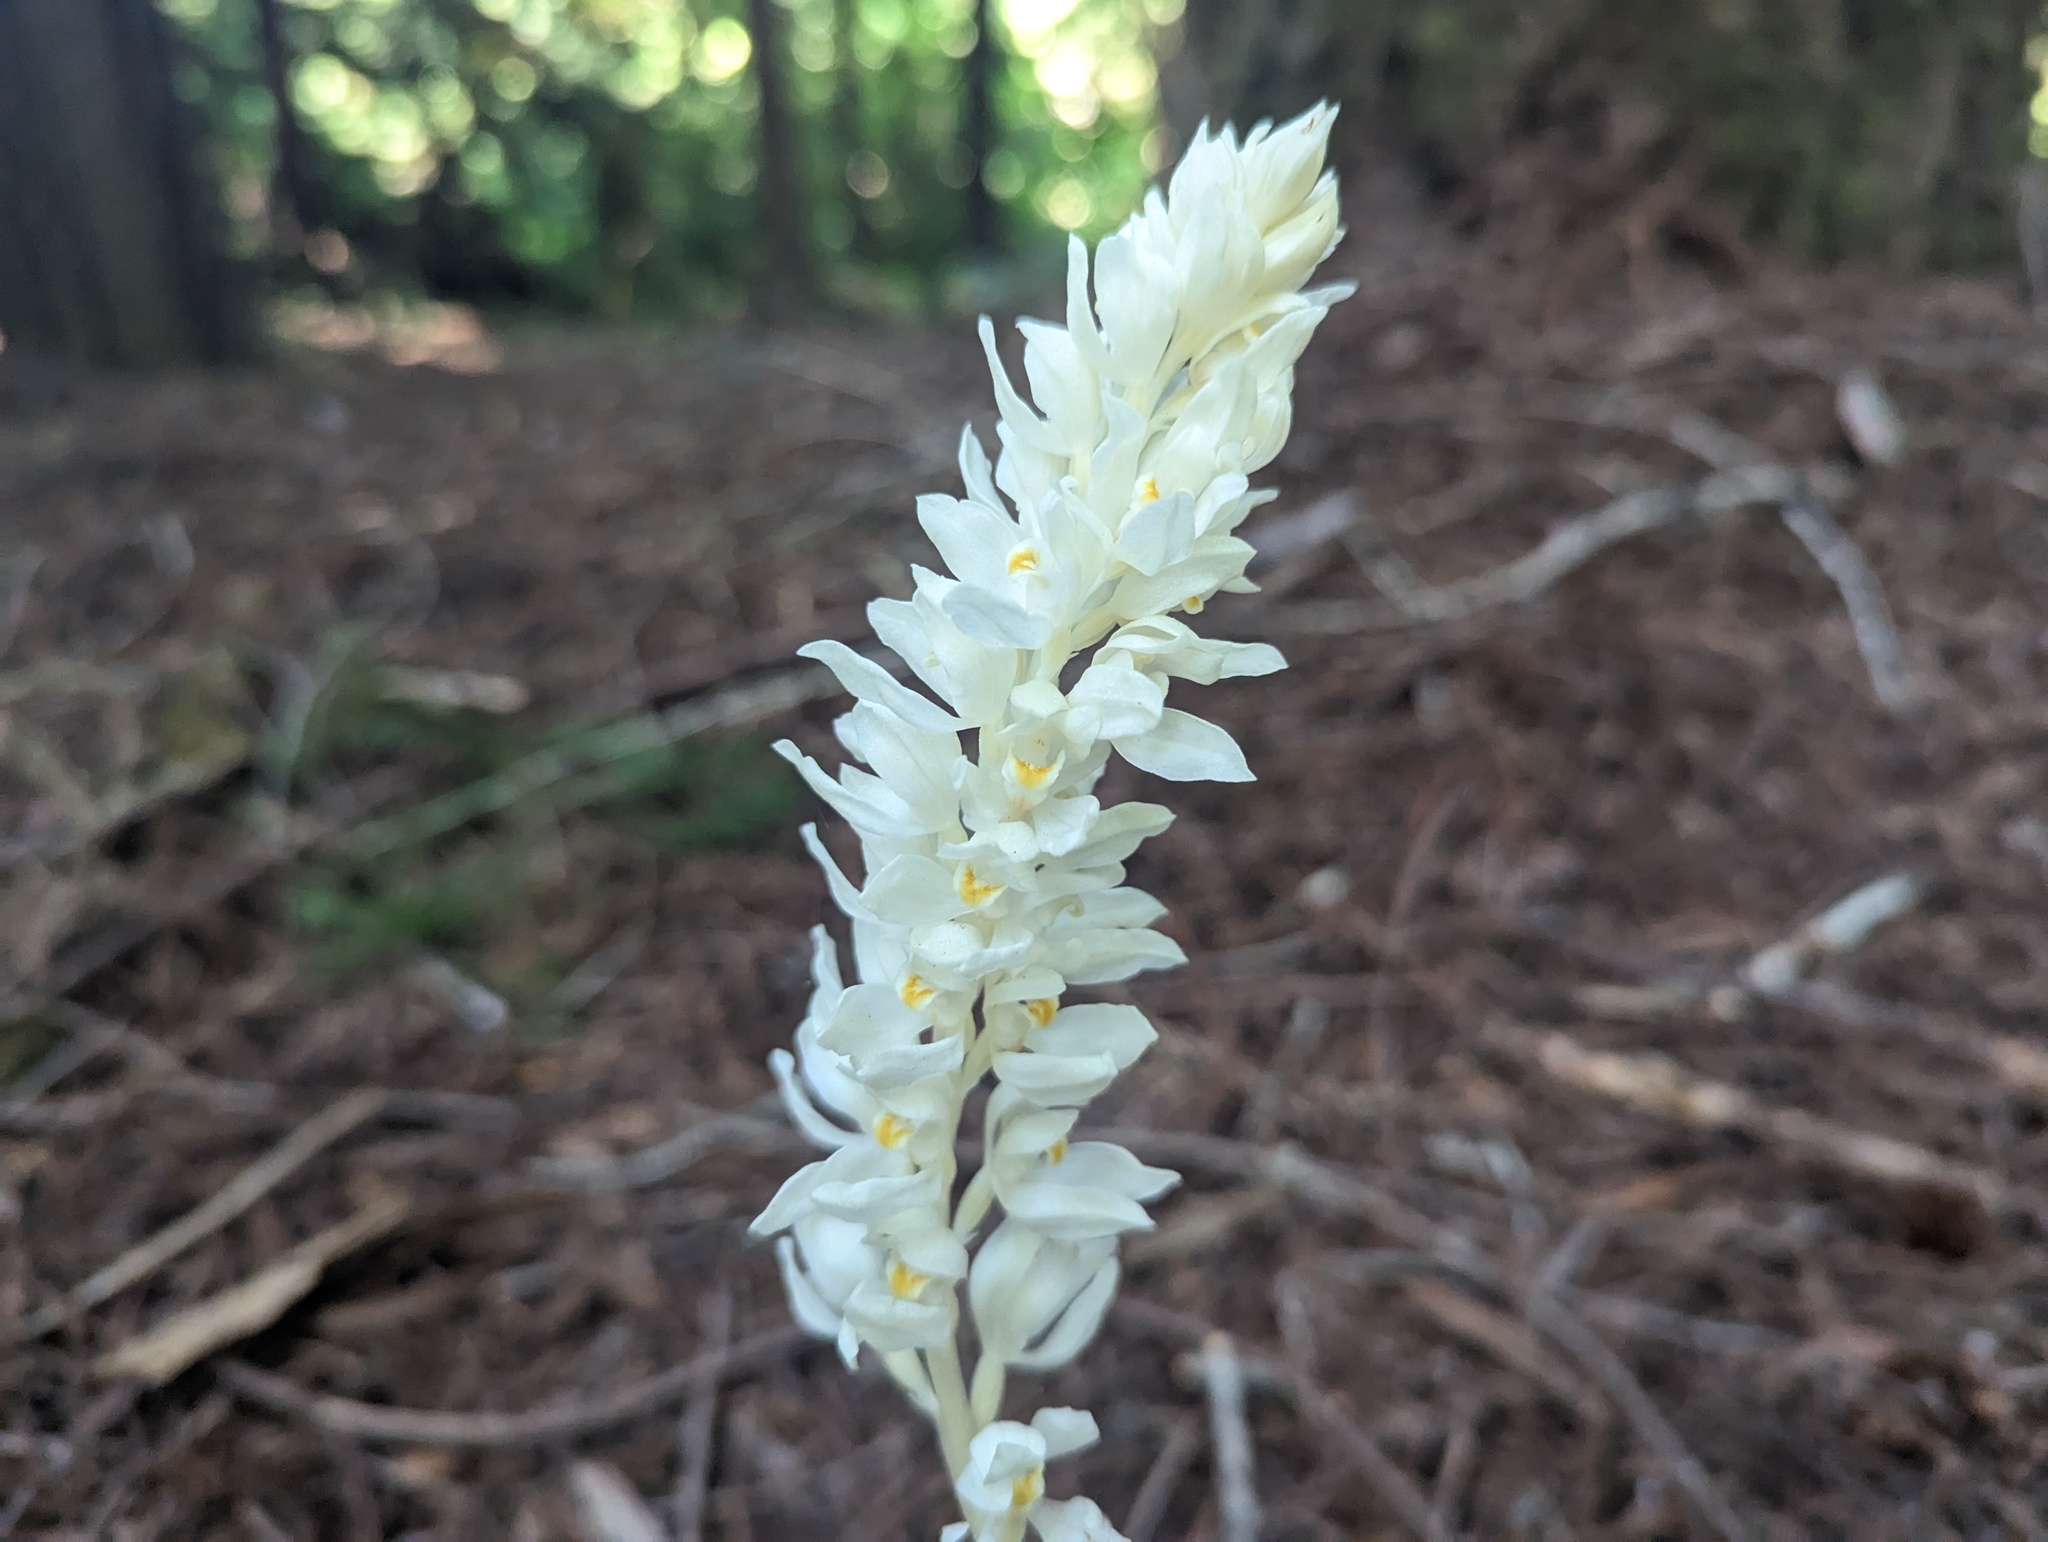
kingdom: Plantae
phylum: Tracheophyta
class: Liliopsida
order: Asparagales
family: Orchidaceae
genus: Cephalanthera
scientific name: Cephalanthera austiniae
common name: Phantom orchid
